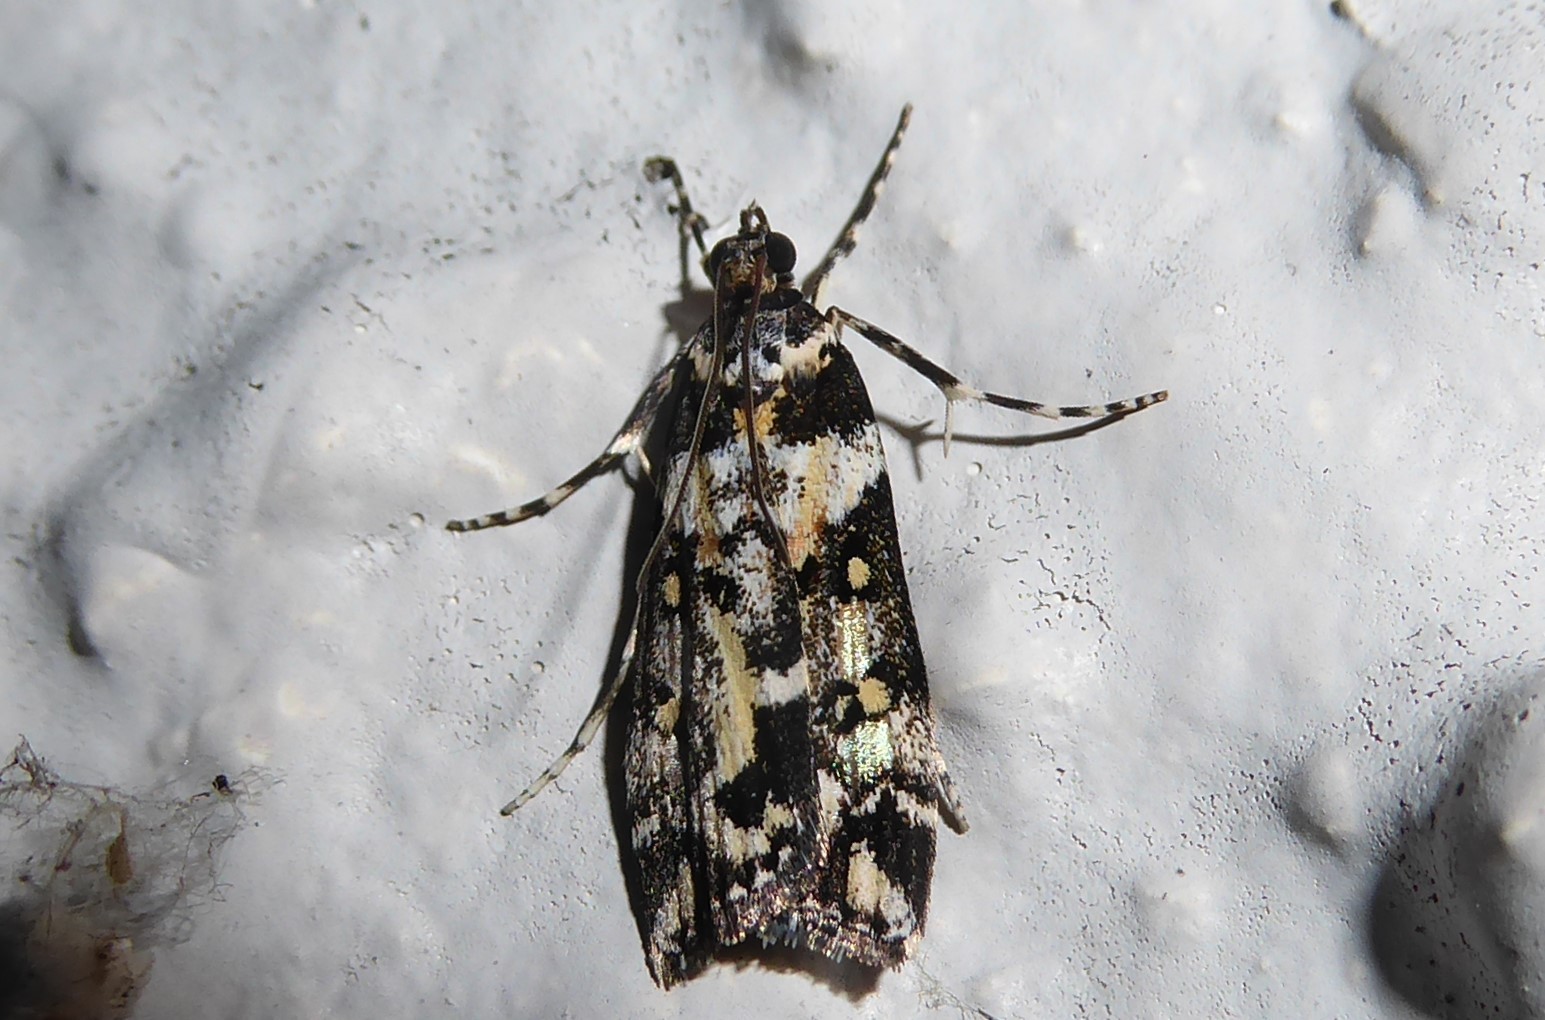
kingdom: Animalia
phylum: Arthropoda
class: Insecta
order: Lepidoptera
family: Crambidae
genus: Eudonia
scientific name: Eudonia diphtheralis
